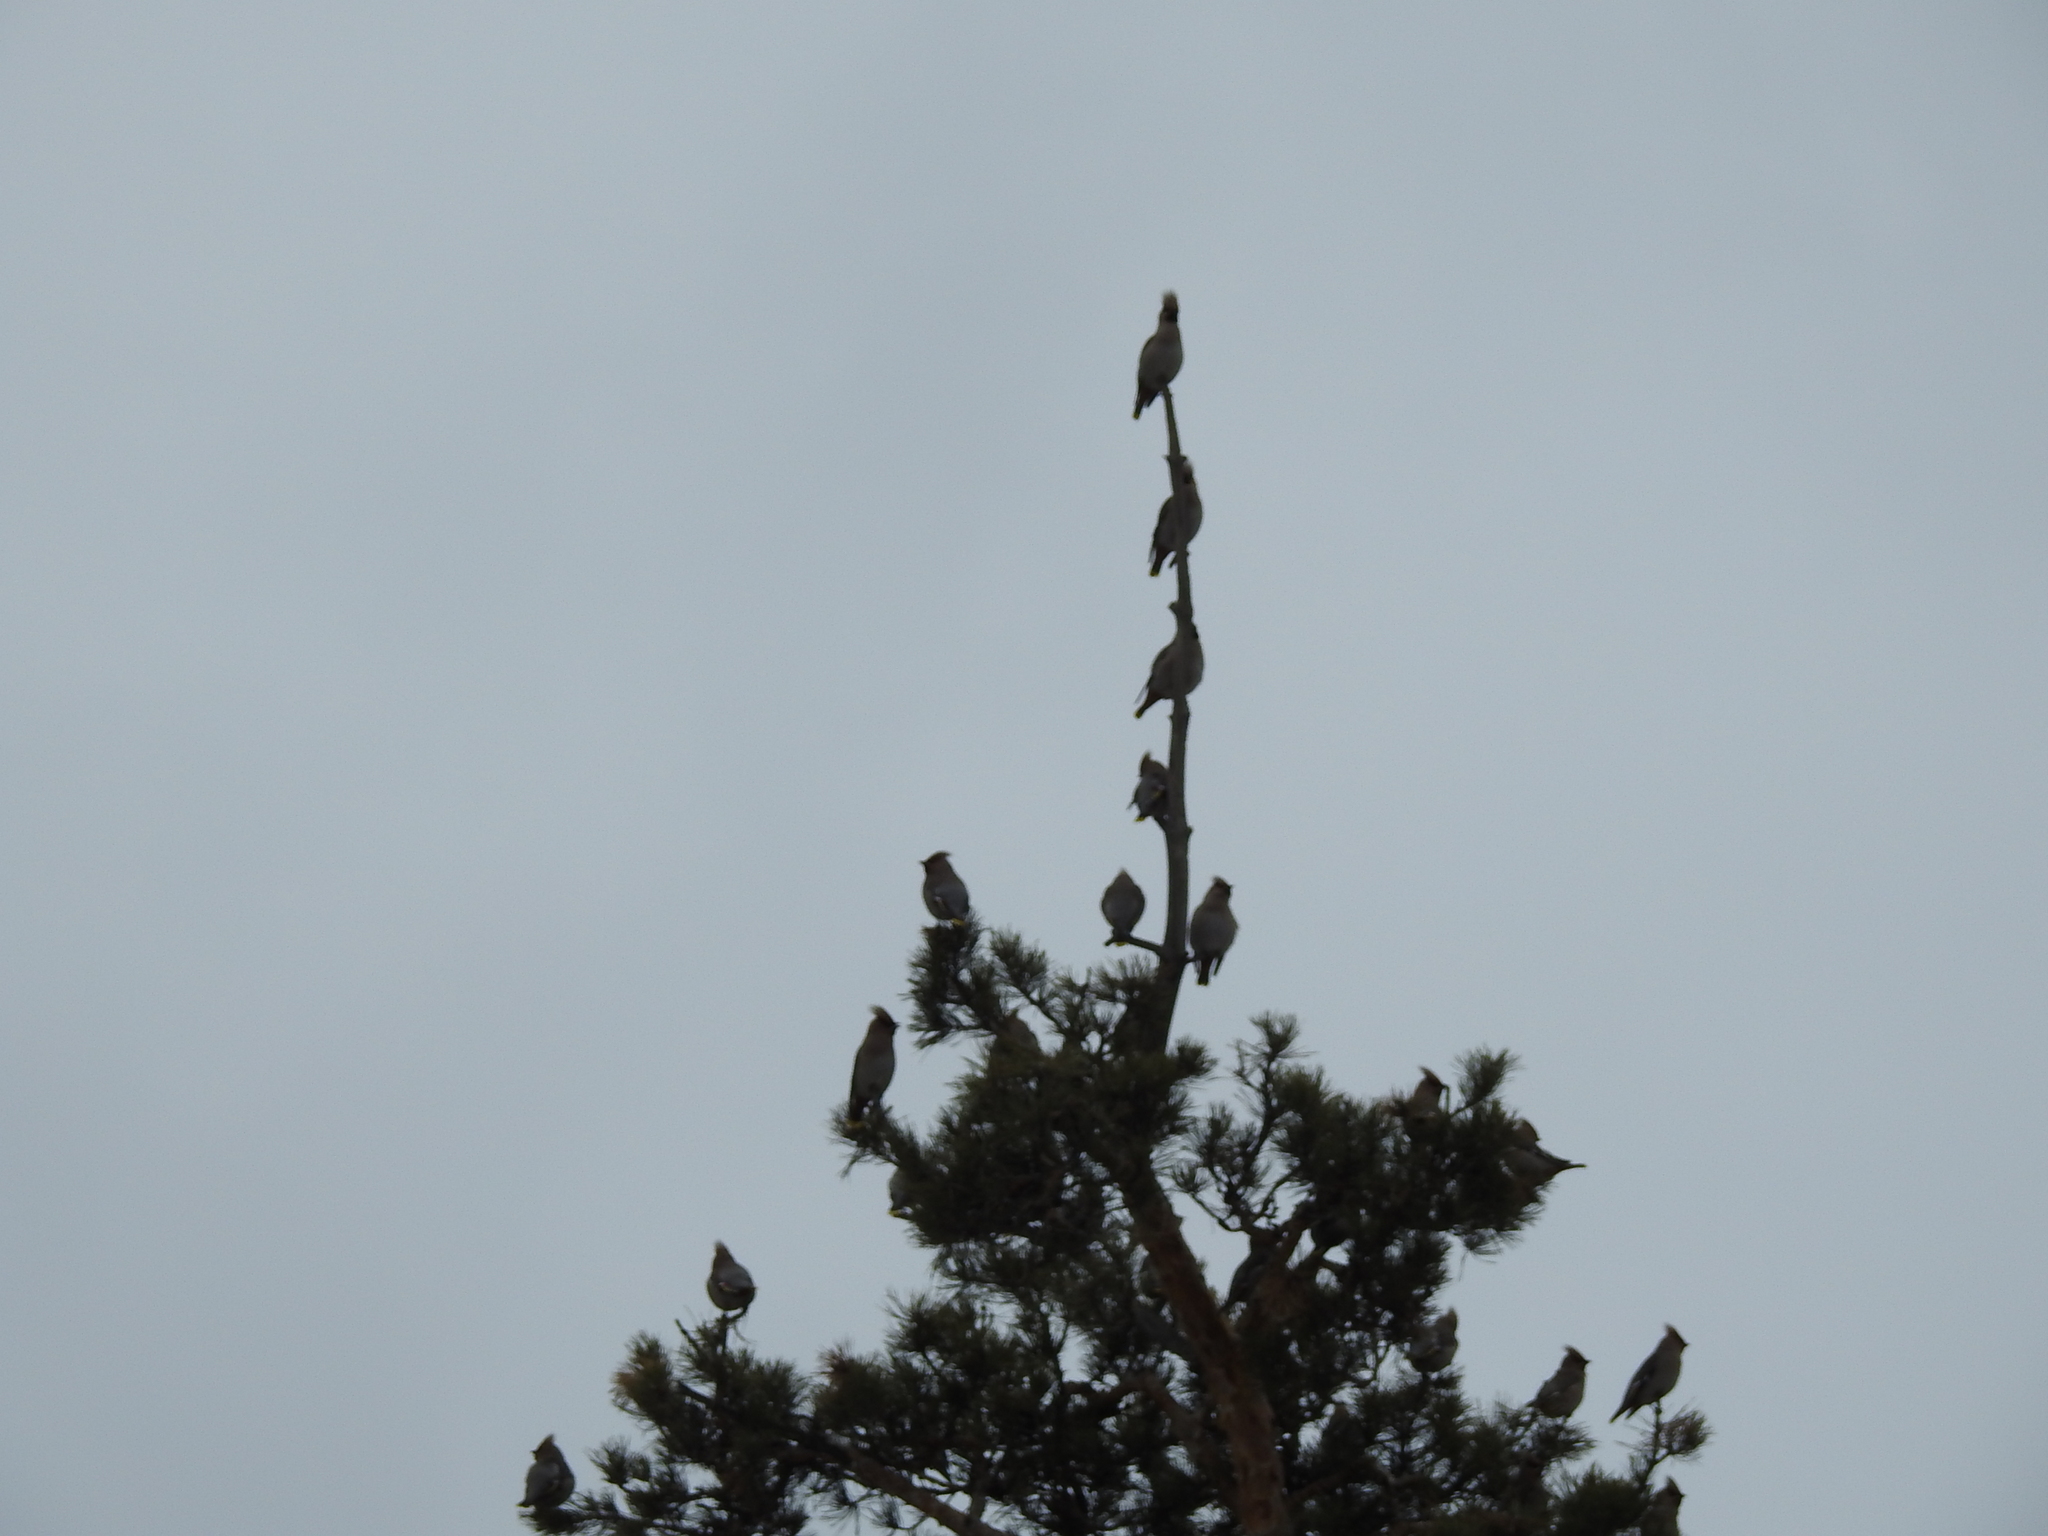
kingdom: Animalia
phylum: Chordata
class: Aves
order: Passeriformes
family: Bombycillidae
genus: Bombycilla
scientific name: Bombycilla garrulus
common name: Bohemian waxwing
